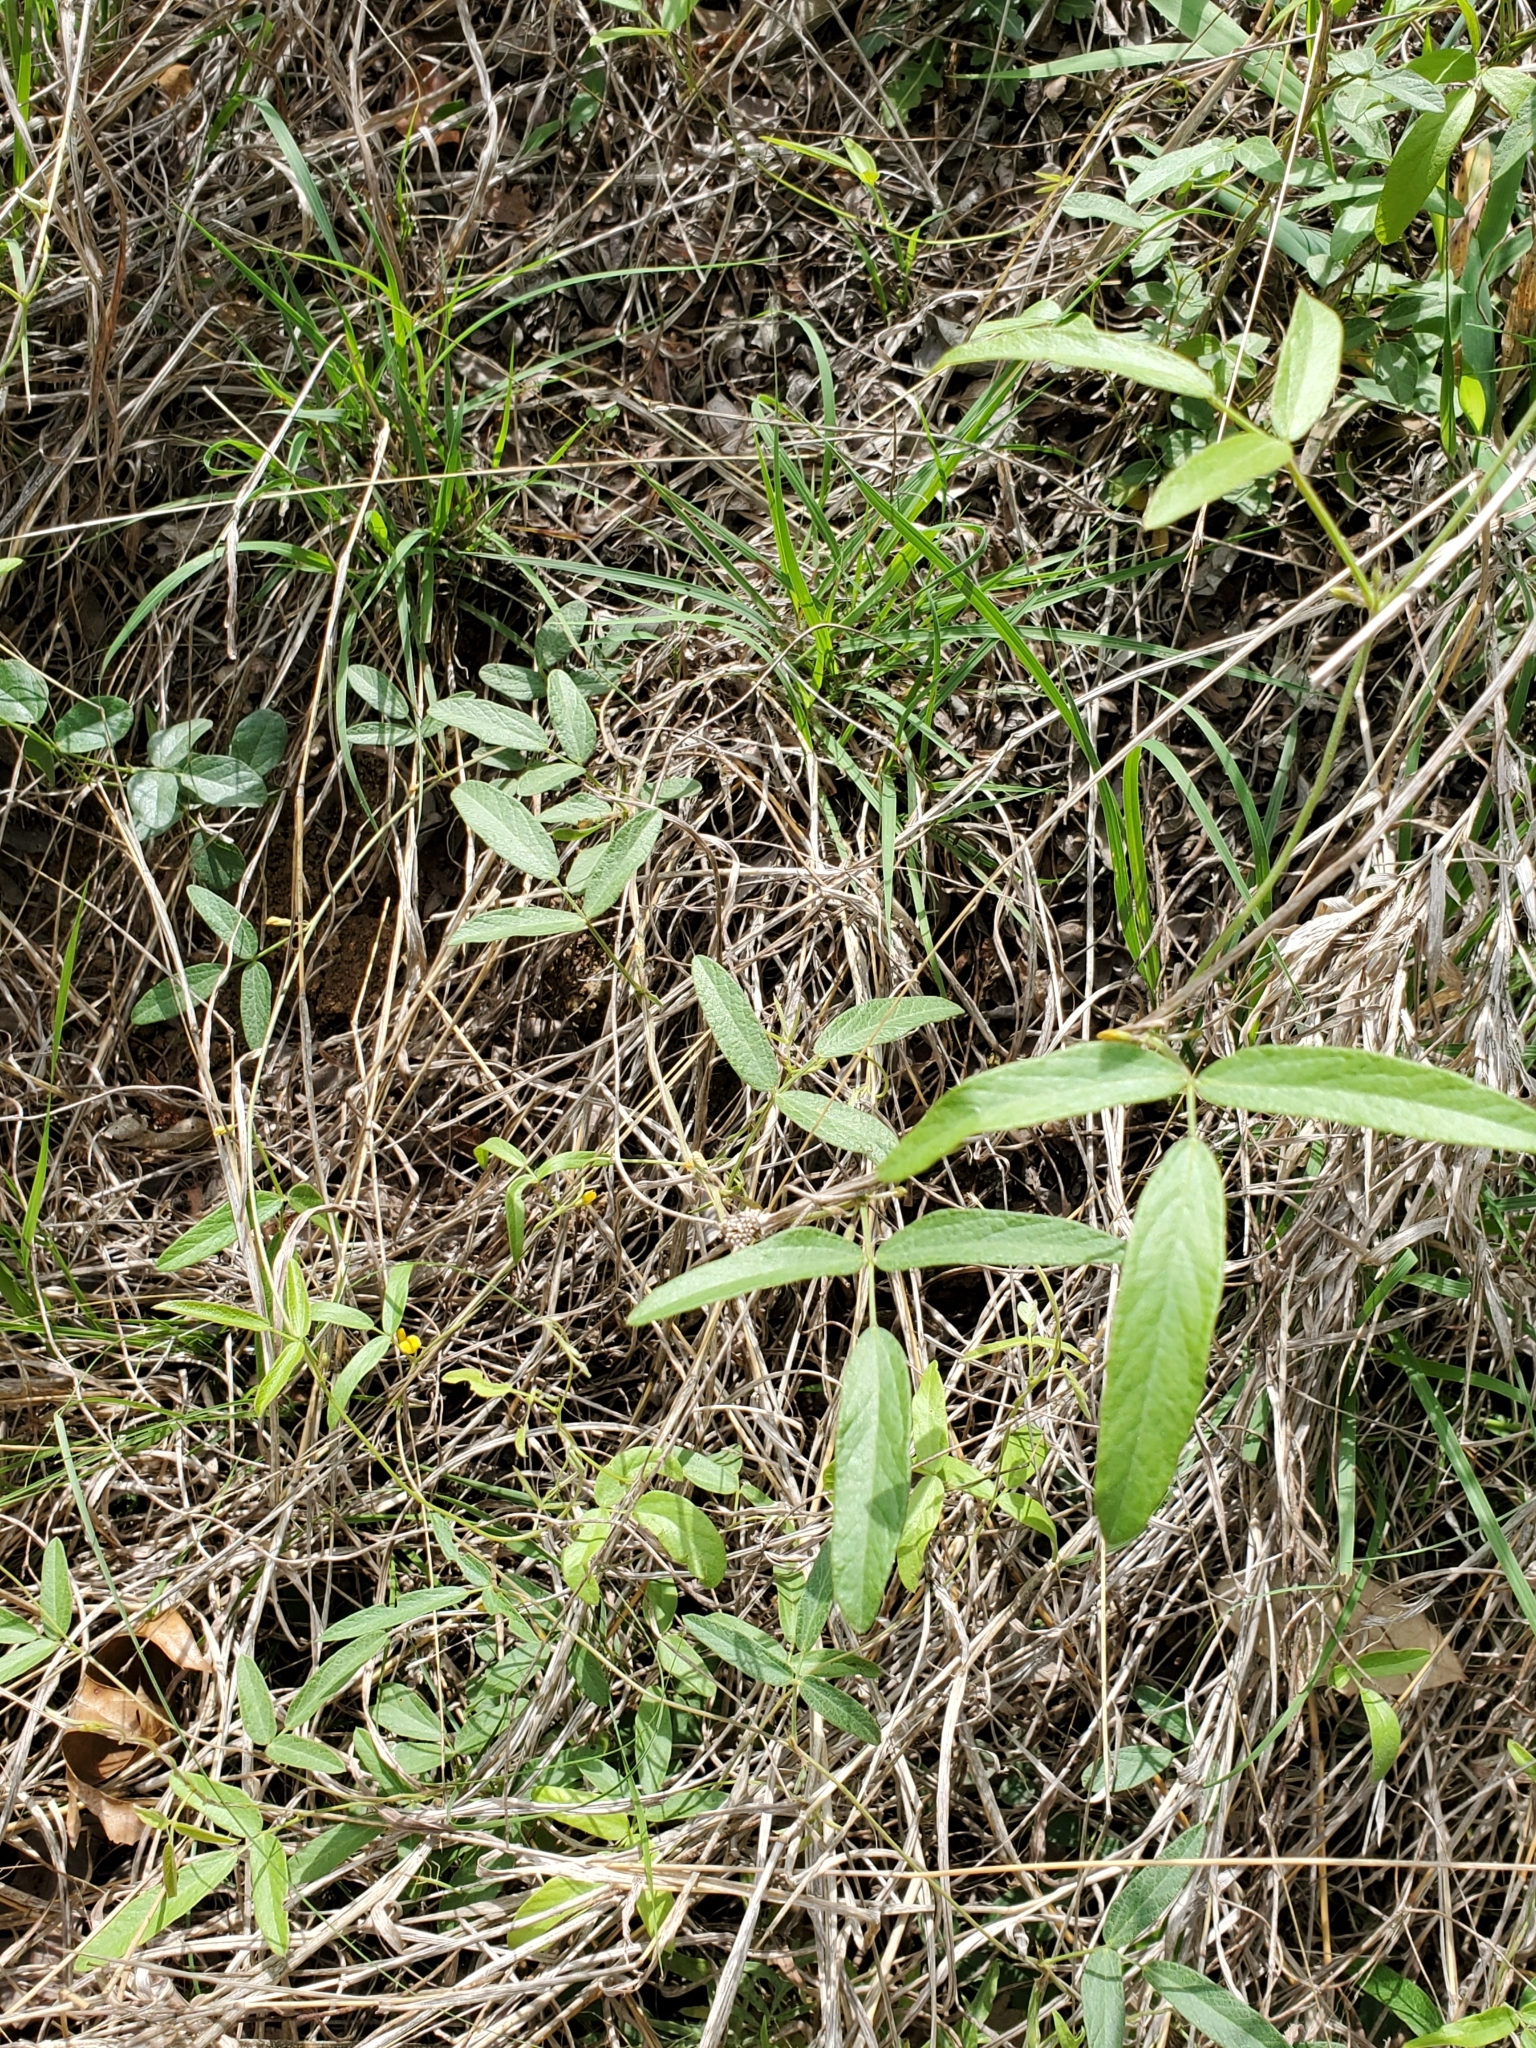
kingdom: Plantae
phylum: Tracheophyta
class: Magnoliopsida
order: Fabales
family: Fabaceae
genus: Rhynchosia
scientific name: Rhynchosia senna
